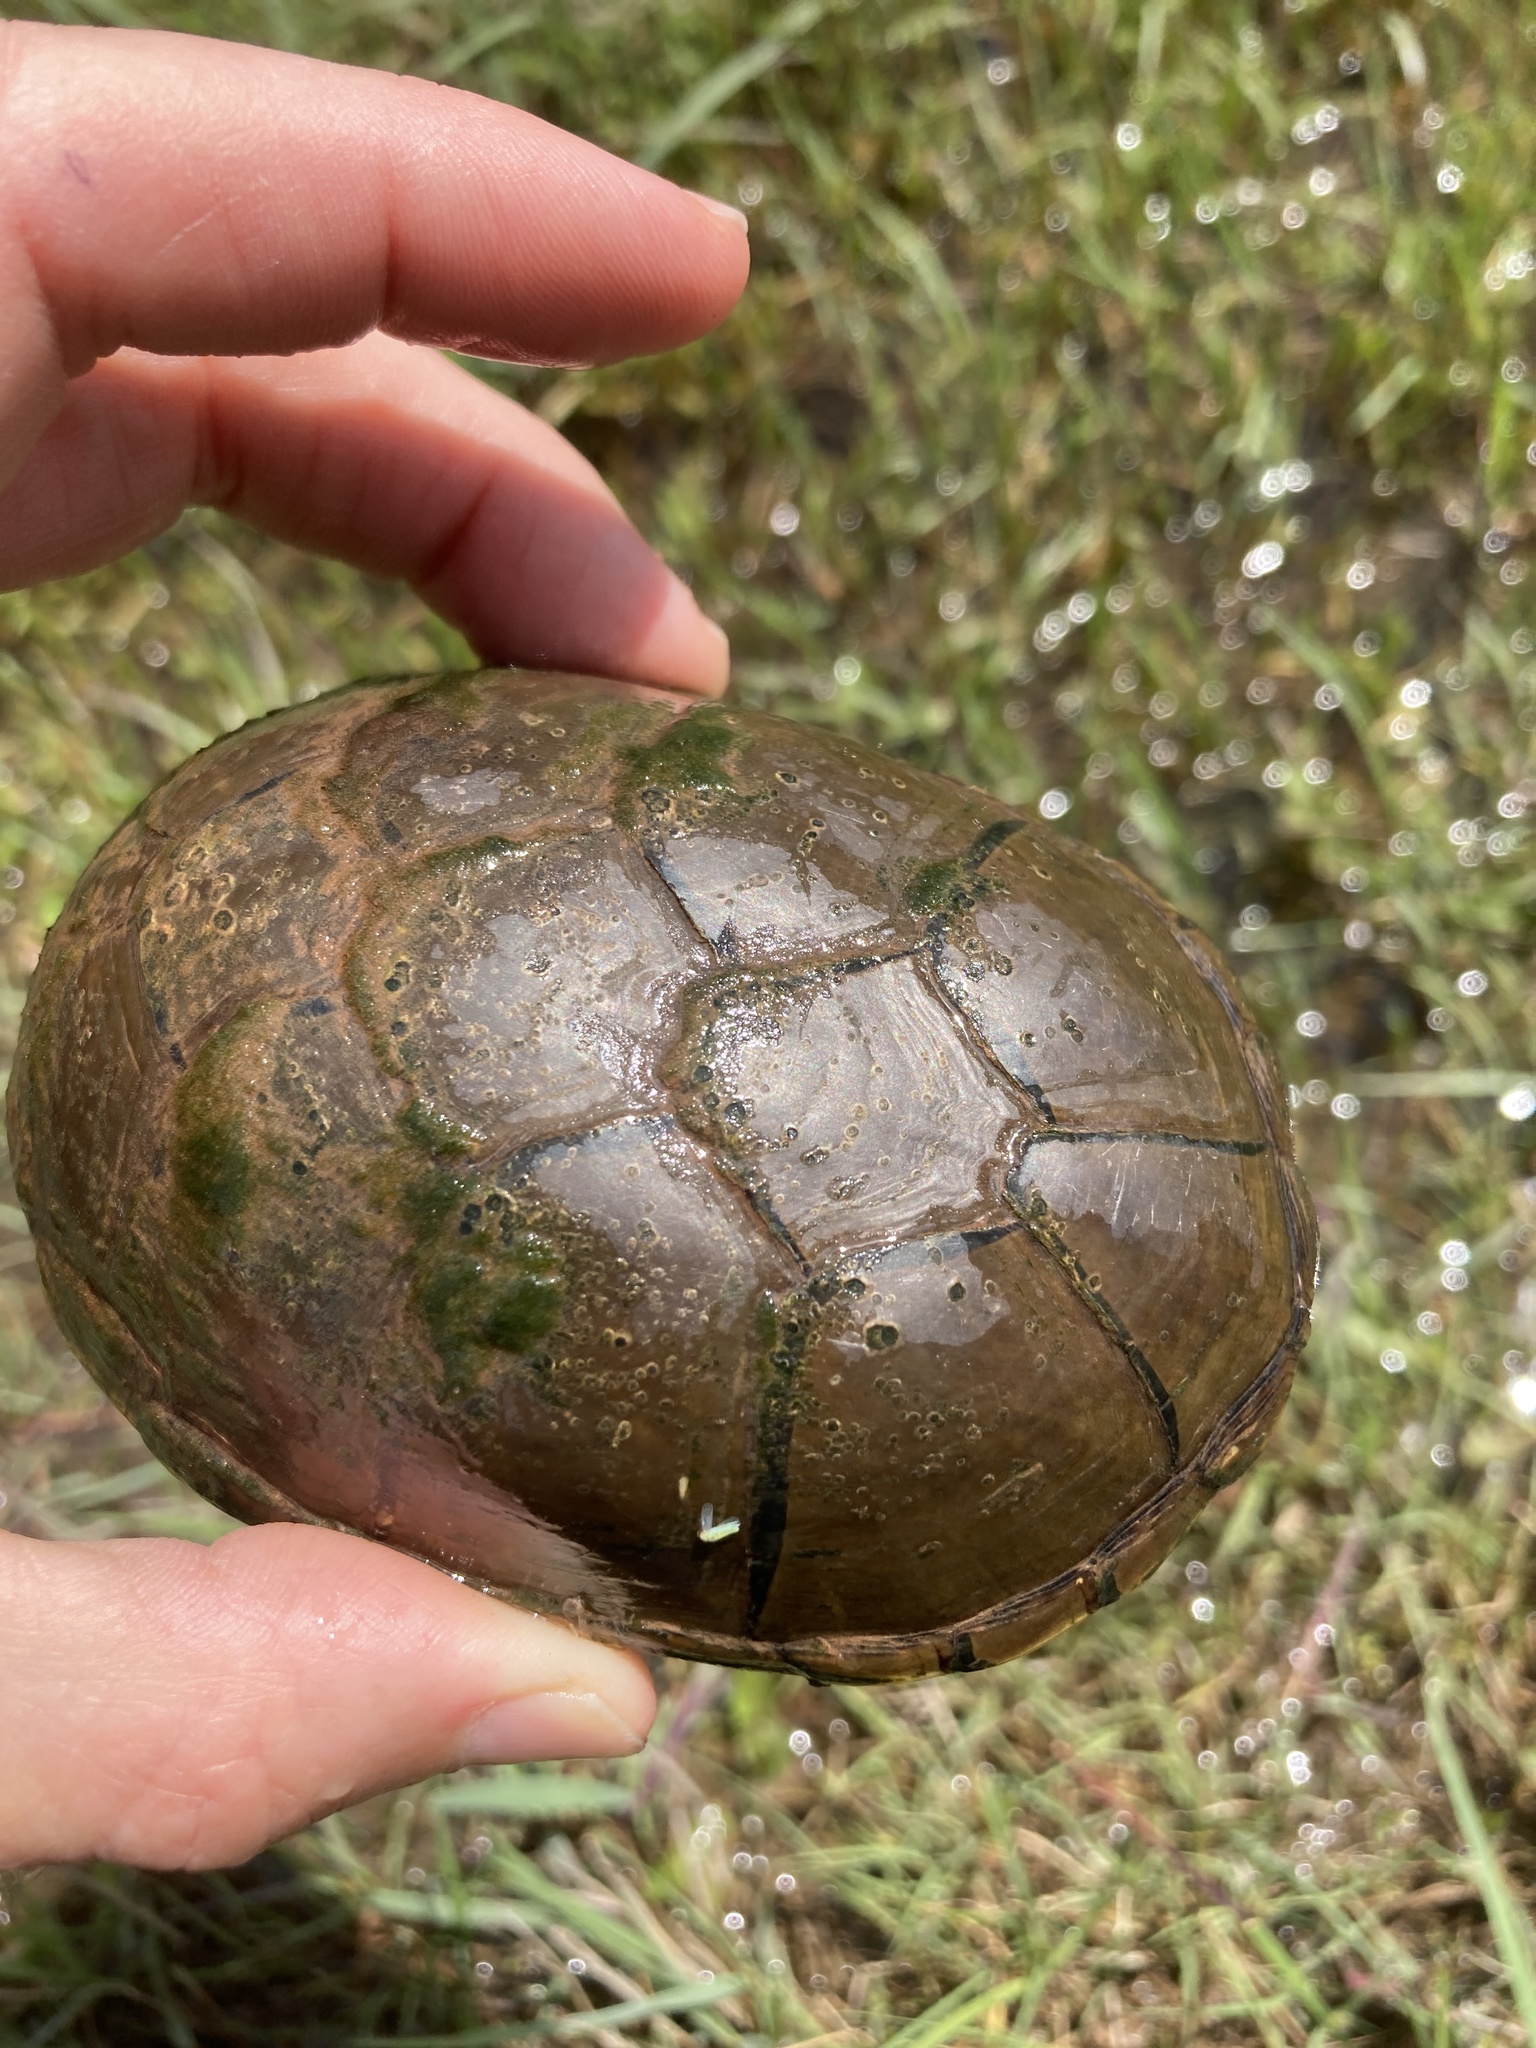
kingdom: Animalia
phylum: Chordata
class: Testudines
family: Kinosternidae
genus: Kinosternon
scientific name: Kinosternon flavescens
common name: Yellow mud turtle
